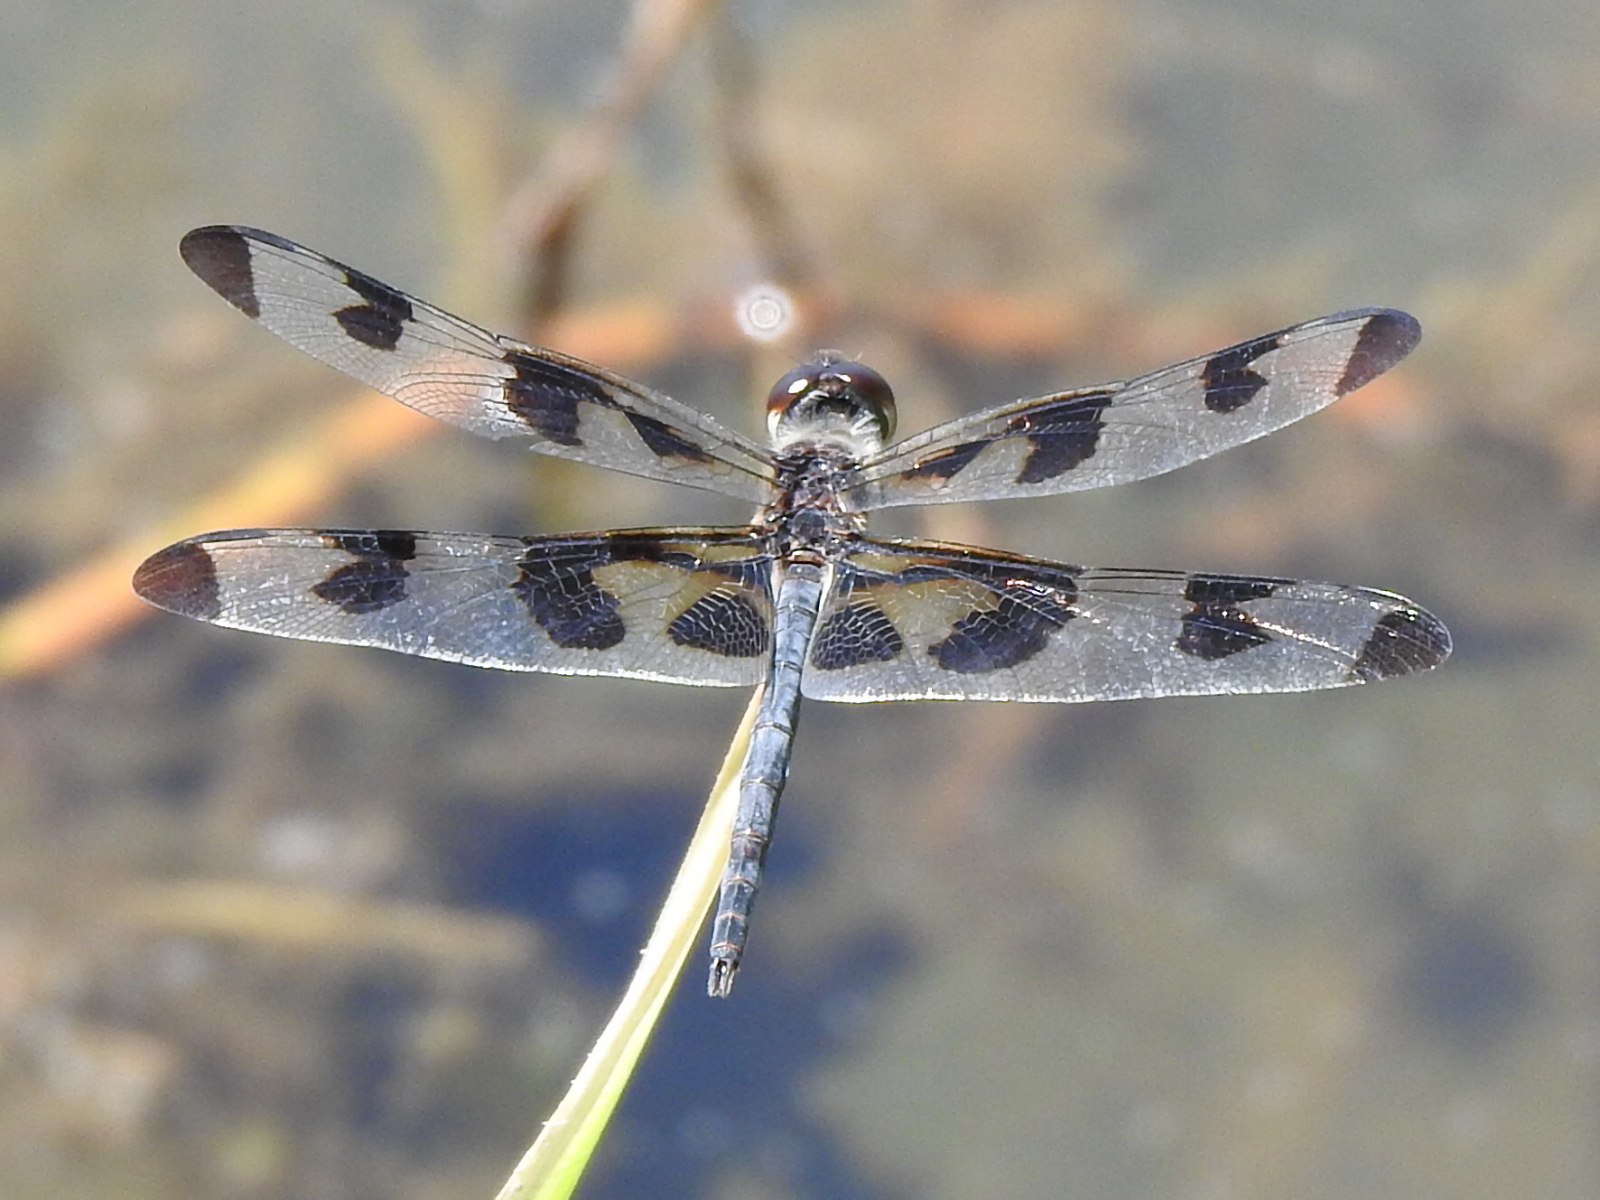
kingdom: Animalia
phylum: Arthropoda
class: Insecta
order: Odonata
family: Libellulidae
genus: Celithemis
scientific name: Celithemis fasciata
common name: Banded pennant
